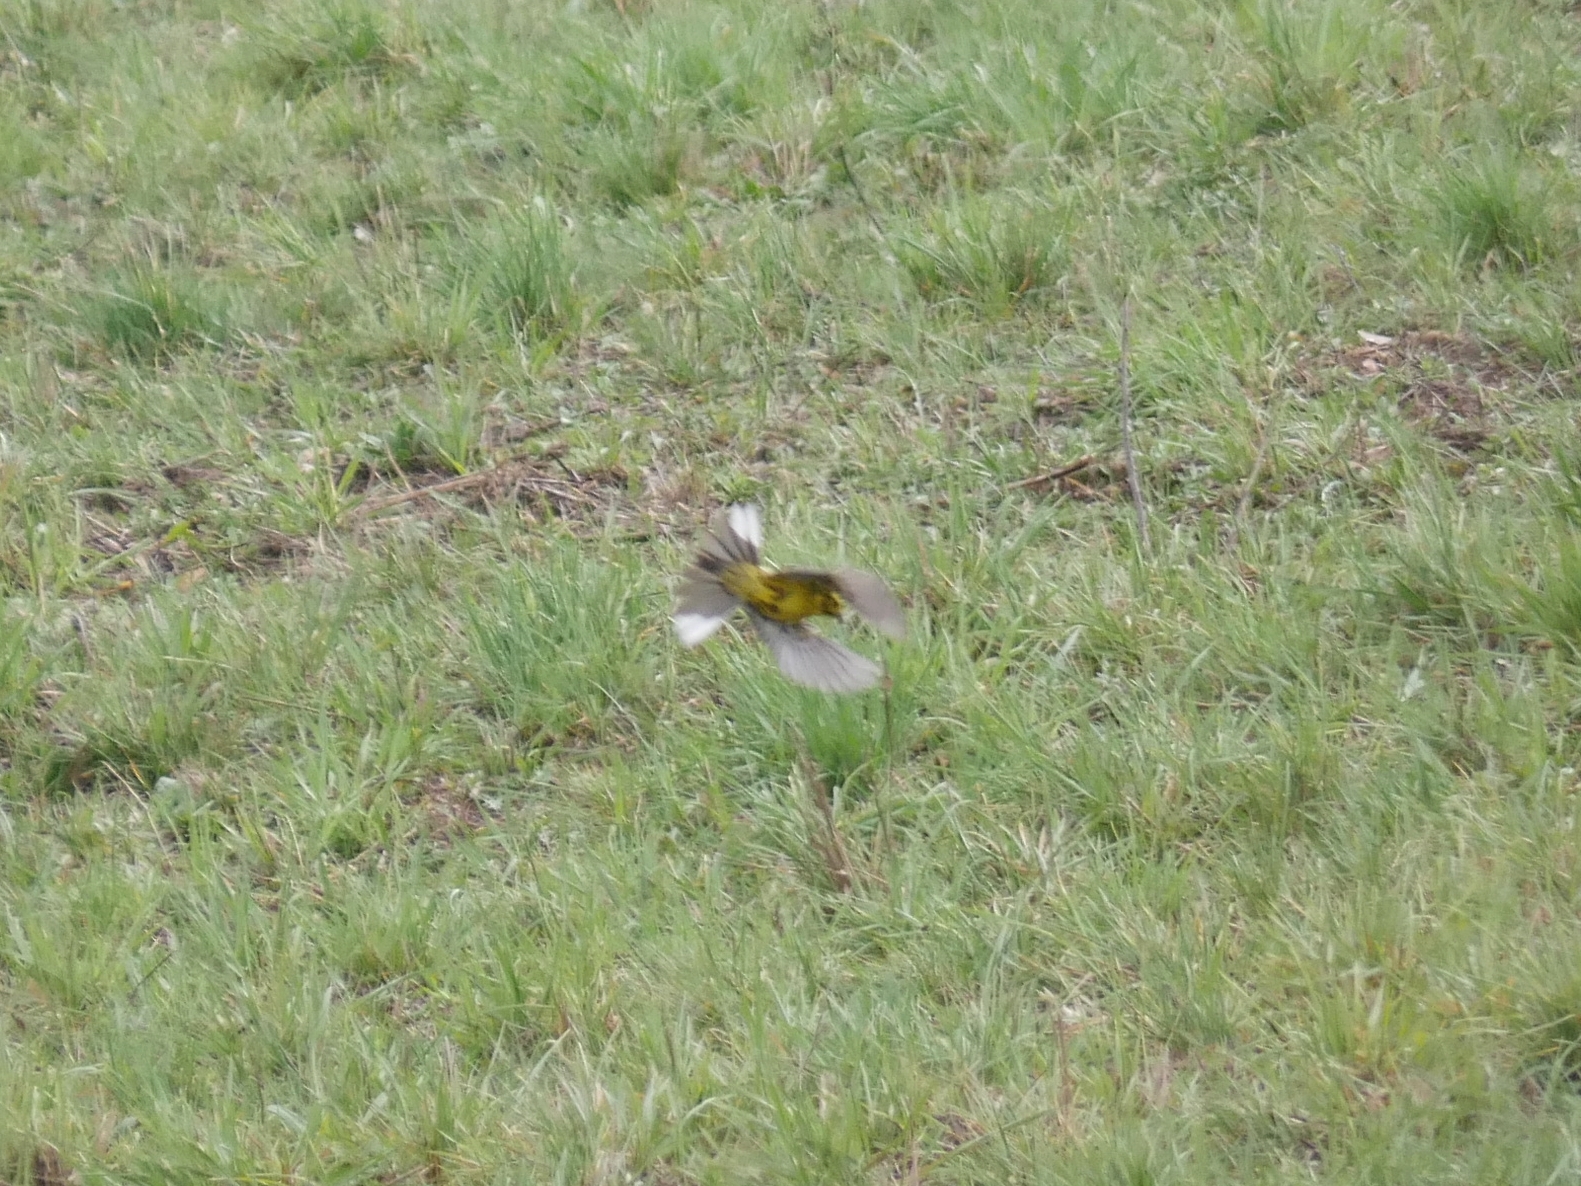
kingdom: Animalia
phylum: Chordata
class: Aves
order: Passeriformes
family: Emberizidae
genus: Emberiza
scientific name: Emberiza citrinella
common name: Yellowhammer
